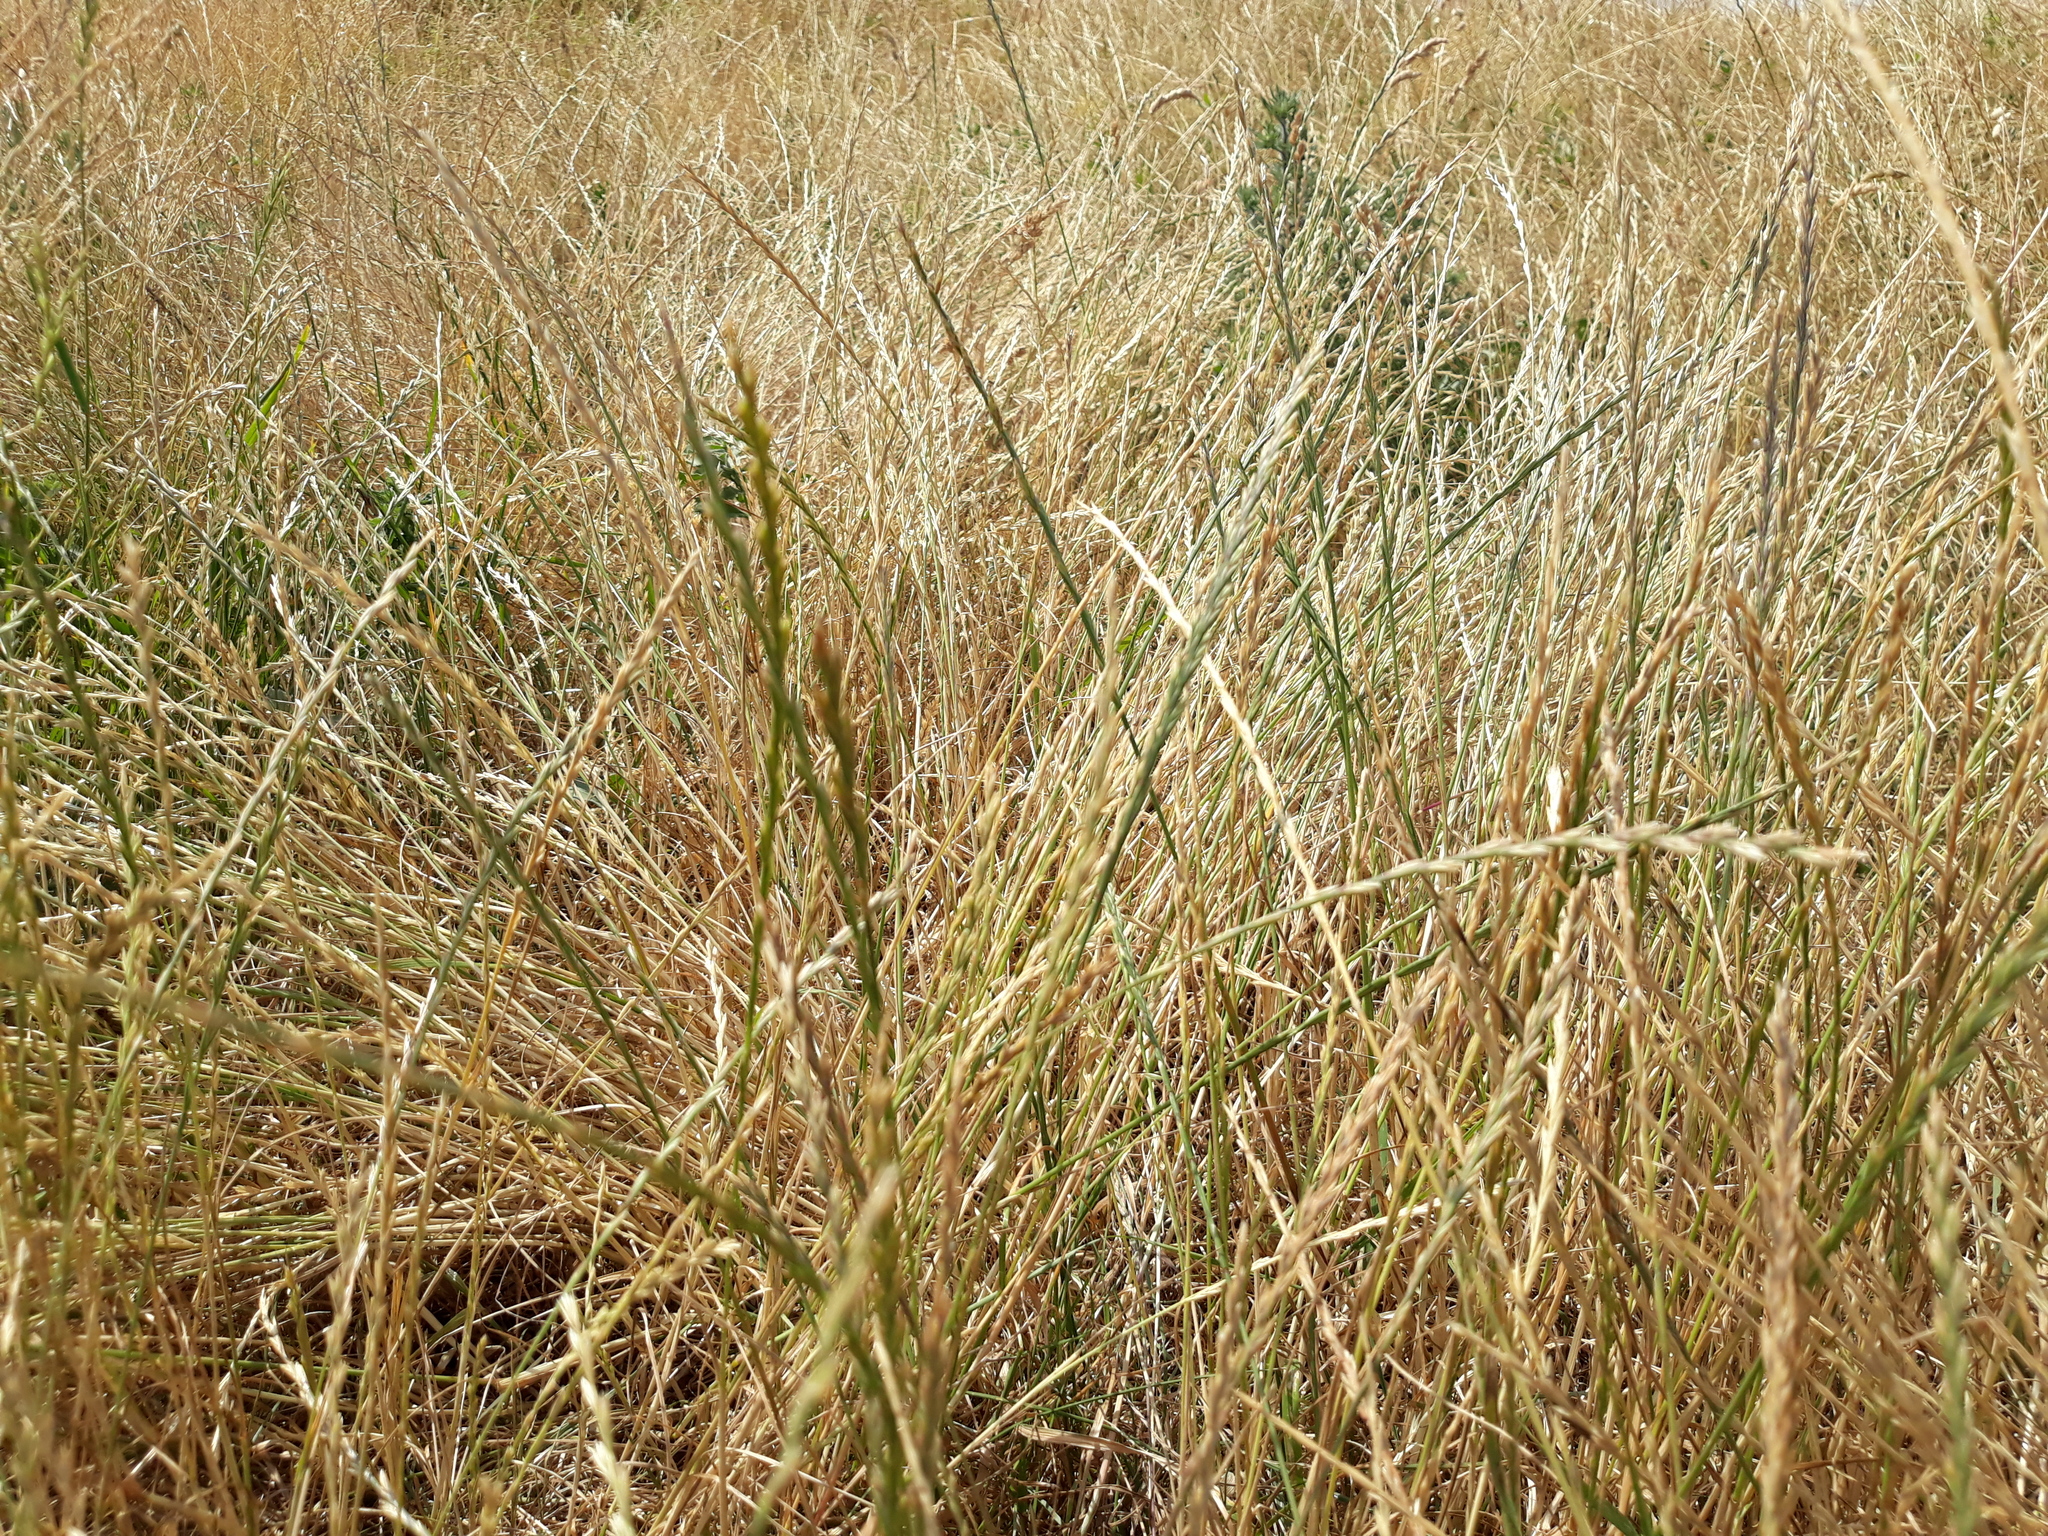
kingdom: Plantae
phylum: Tracheophyta
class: Liliopsida
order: Poales
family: Poaceae
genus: Lolium
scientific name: Lolium perenne
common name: Perennial ryegrass
